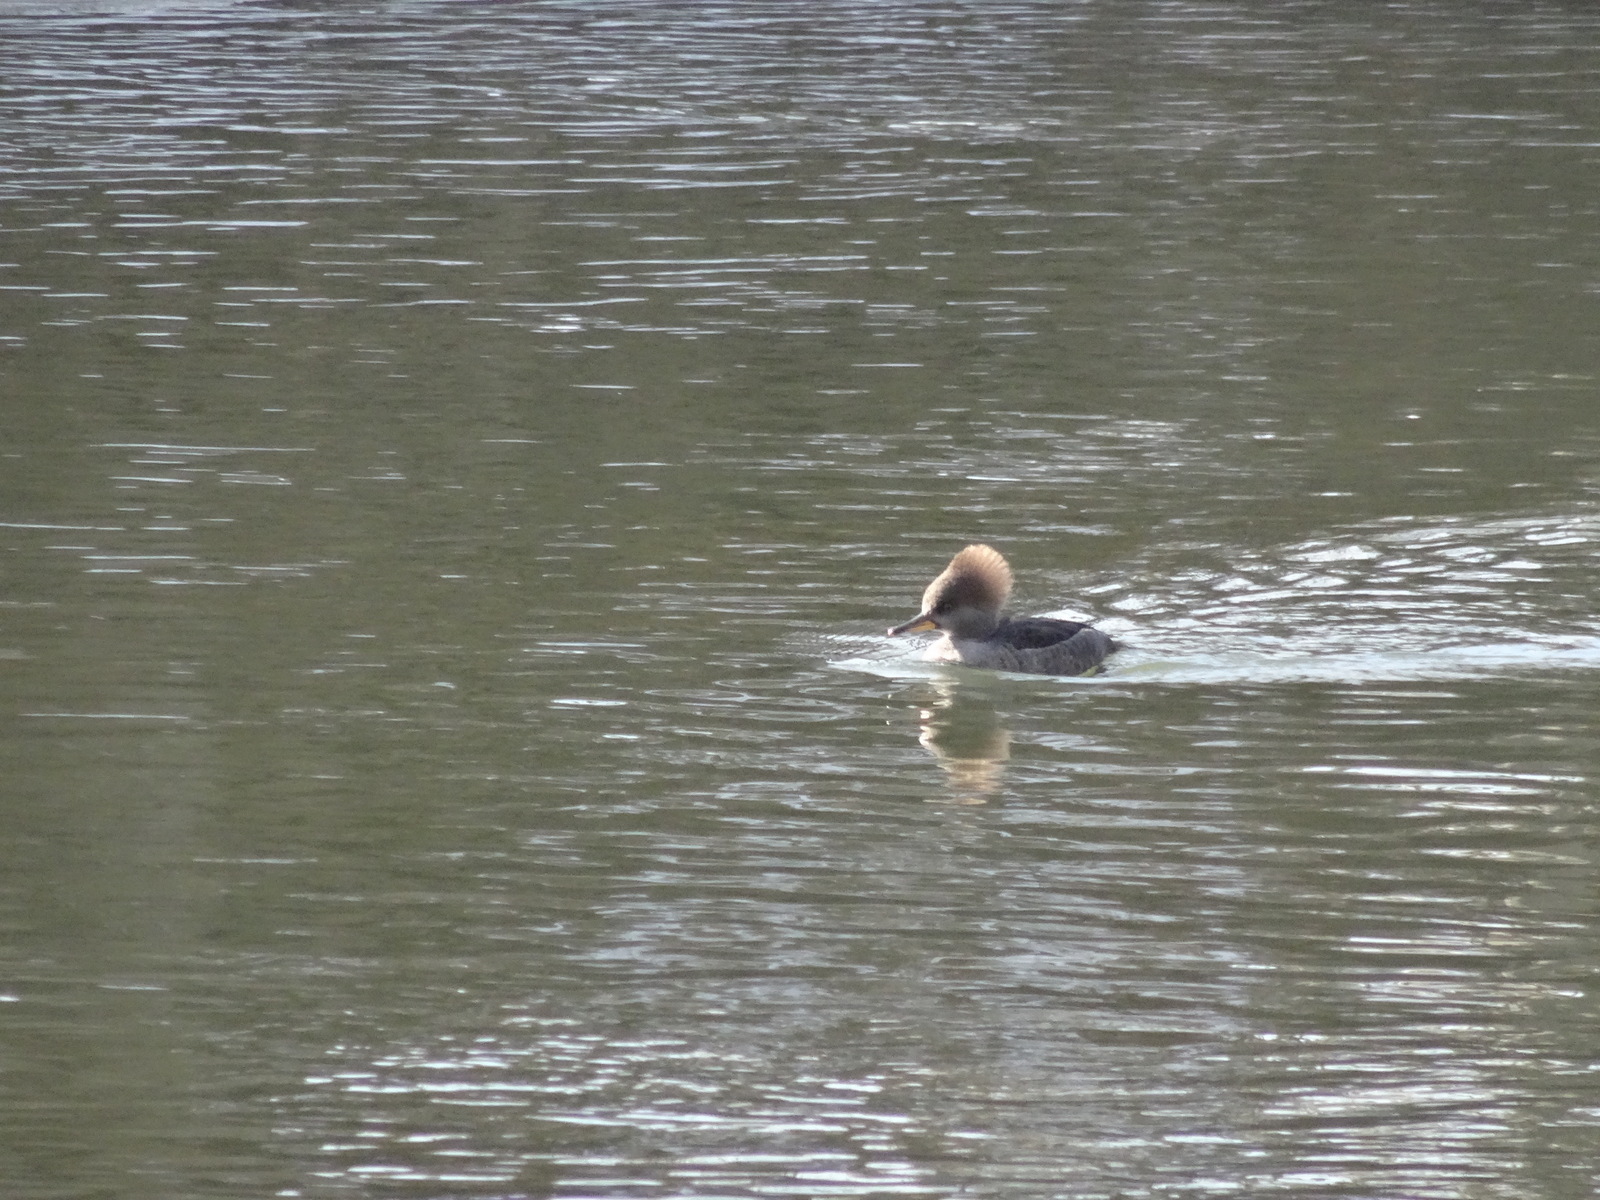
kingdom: Animalia
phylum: Chordata
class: Aves
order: Anseriformes
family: Anatidae
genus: Lophodytes
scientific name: Lophodytes cucullatus
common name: Hooded merganser
